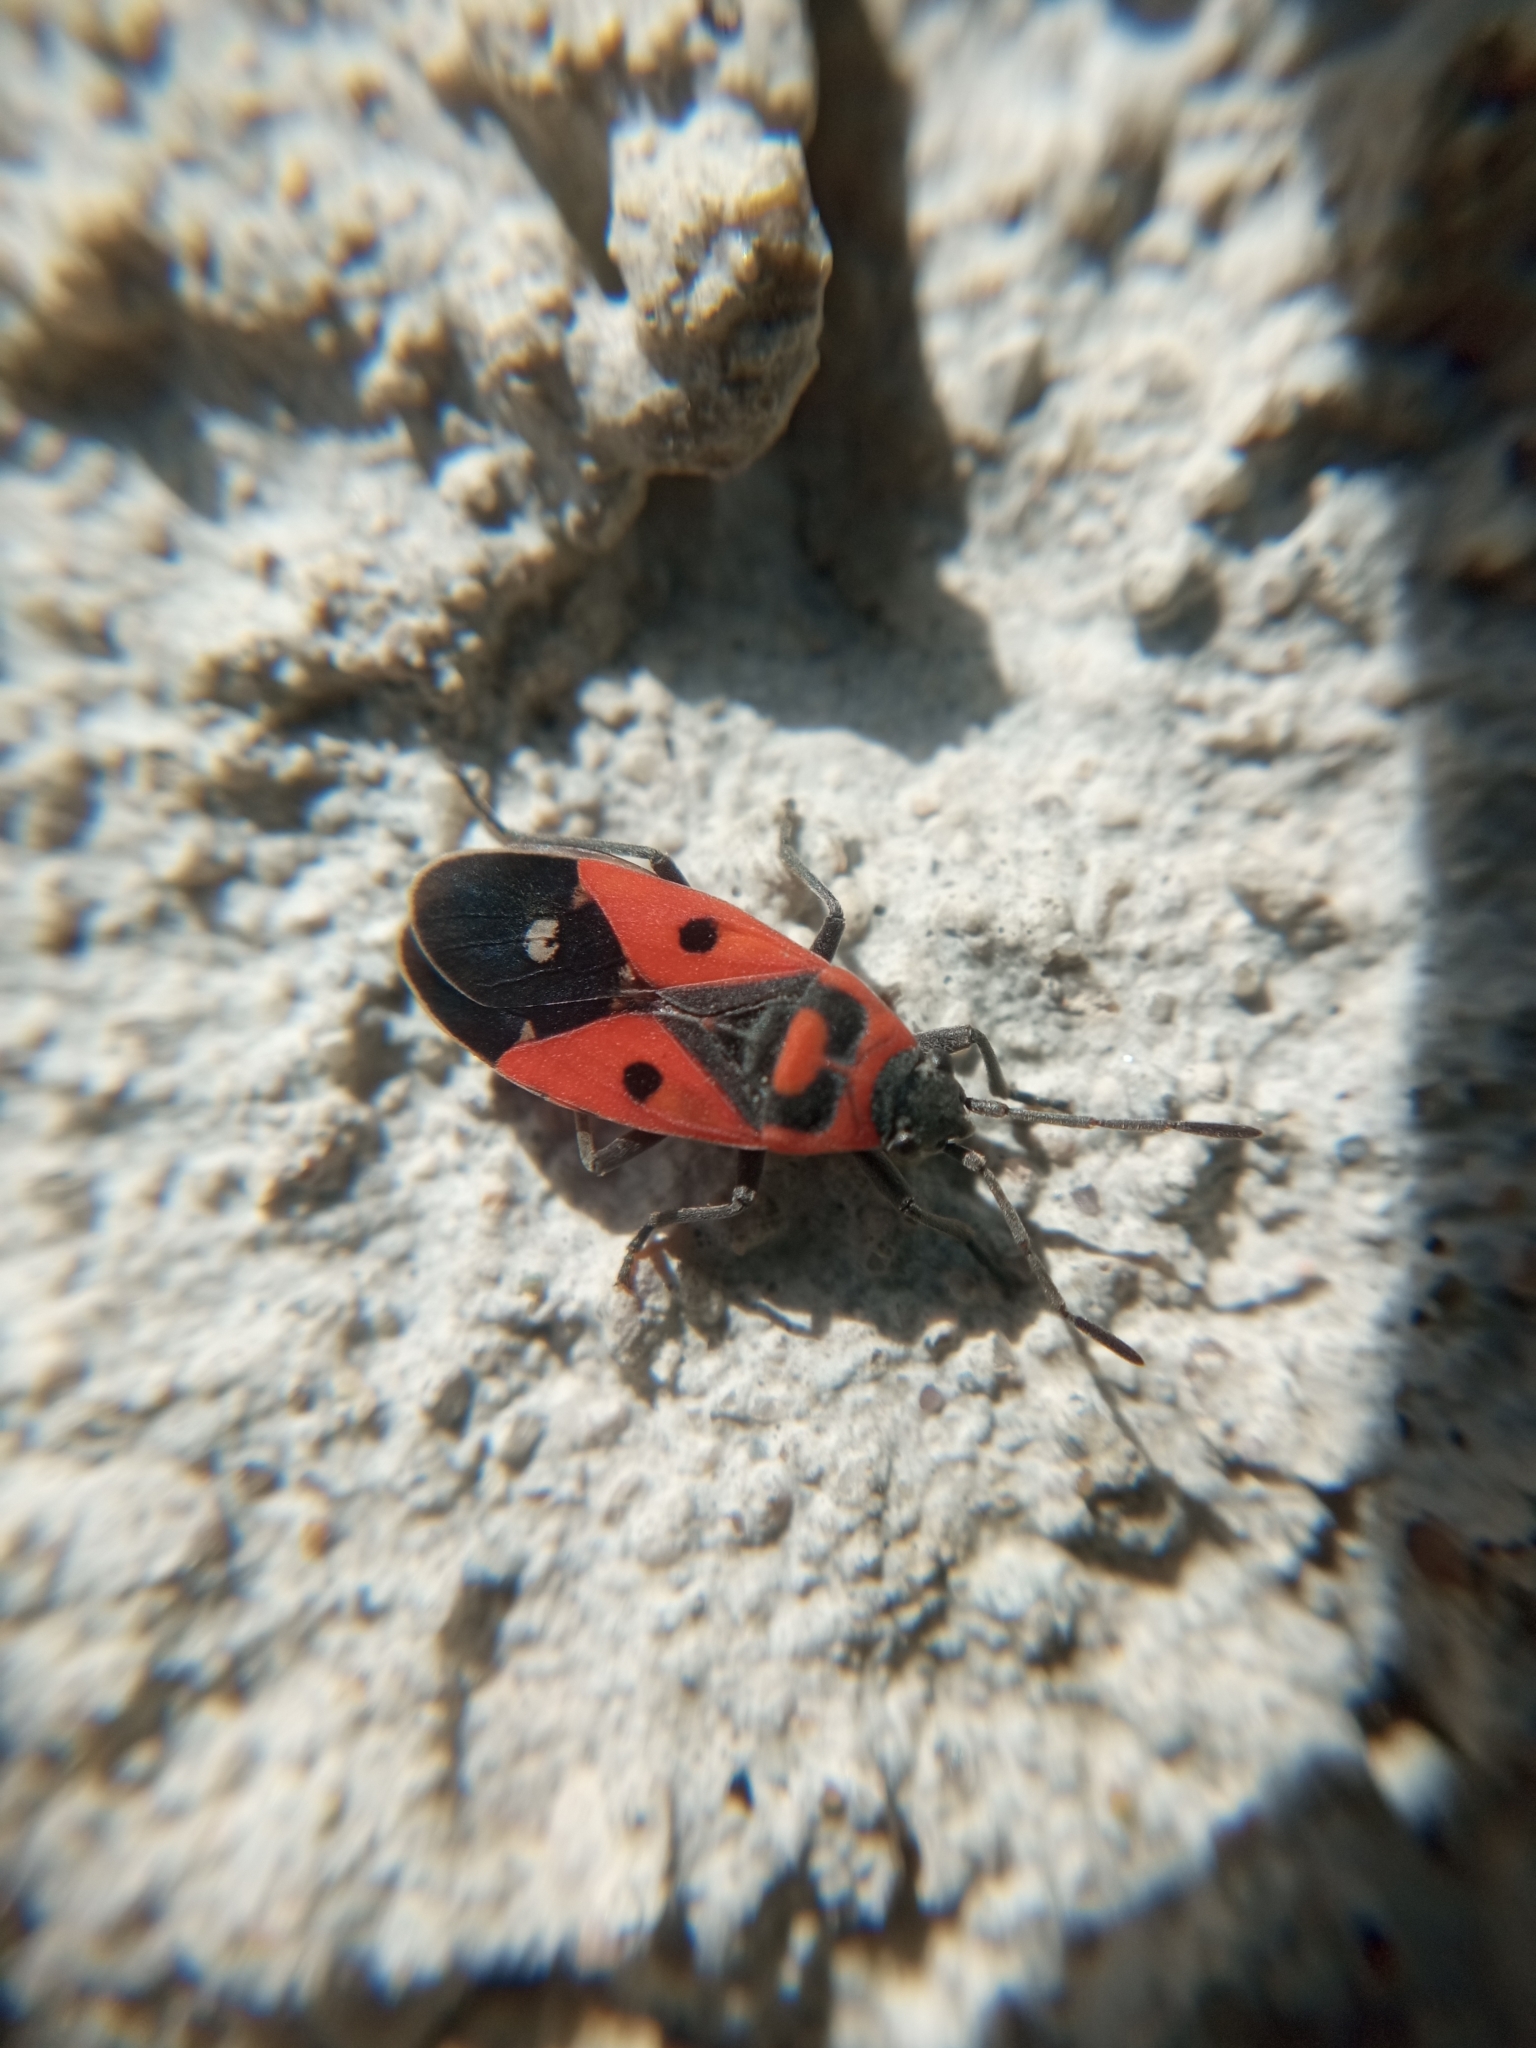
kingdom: Animalia
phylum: Arthropoda
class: Insecta
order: Hemiptera
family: Lygaeidae
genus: Melanocoryphus
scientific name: Melanocoryphus albomaculatus
